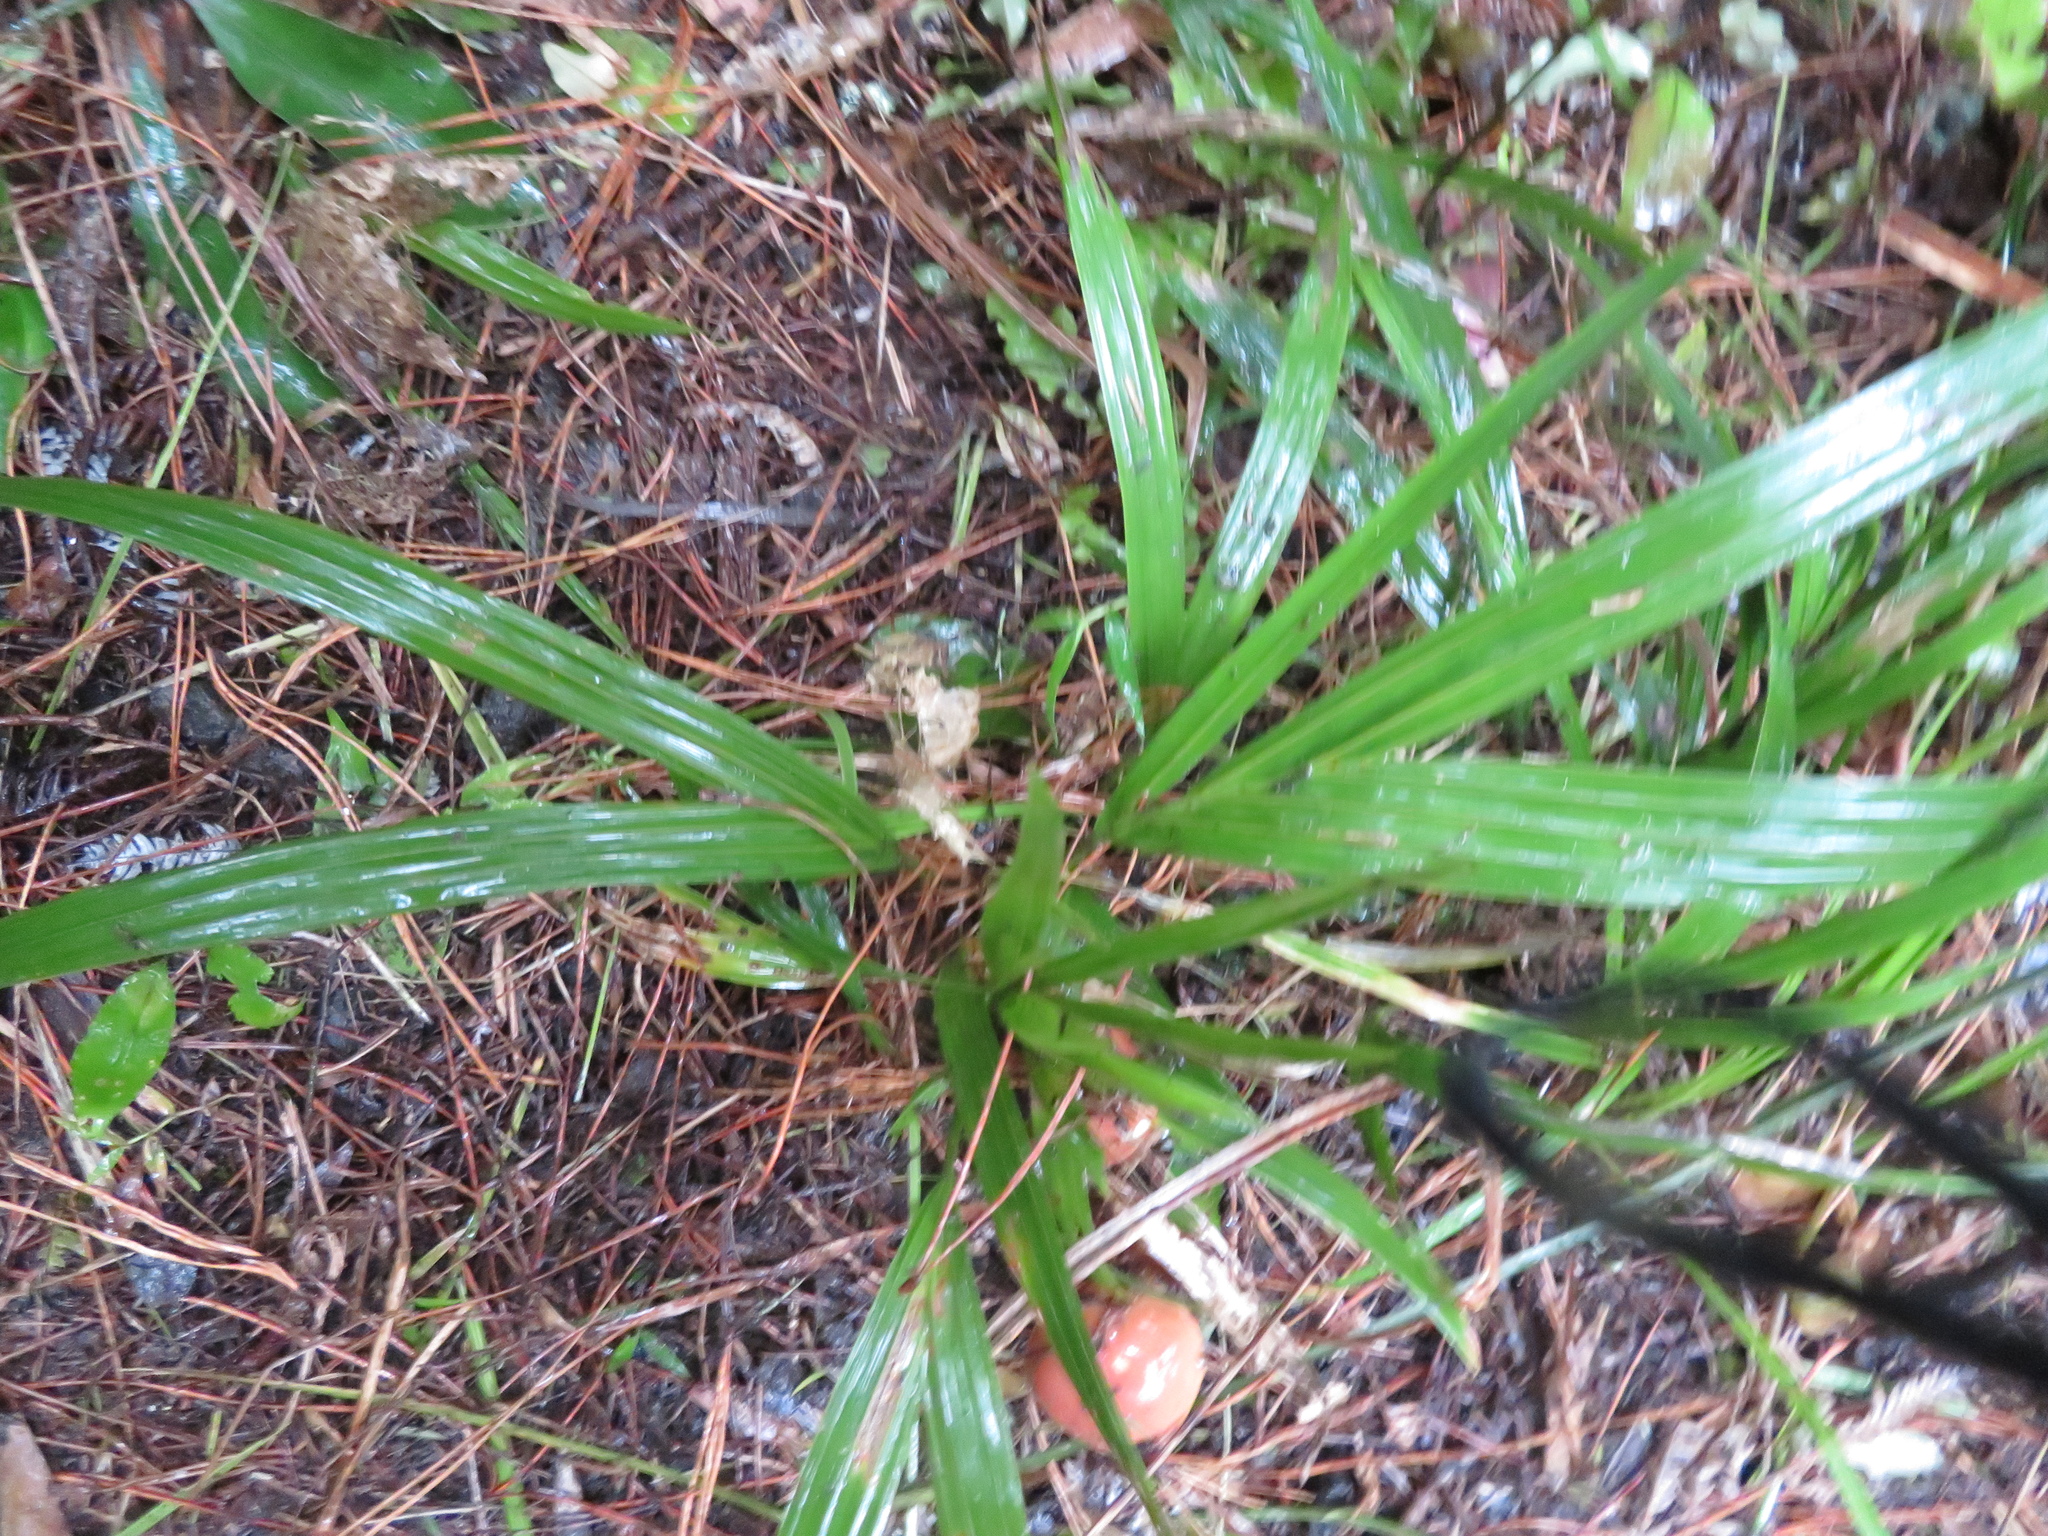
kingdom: Plantae
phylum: Tracheophyta
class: Liliopsida
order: Arecales
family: Arecaceae
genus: Rhopalostylis
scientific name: Rhopalostylis sapida
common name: Feather-duster palm
